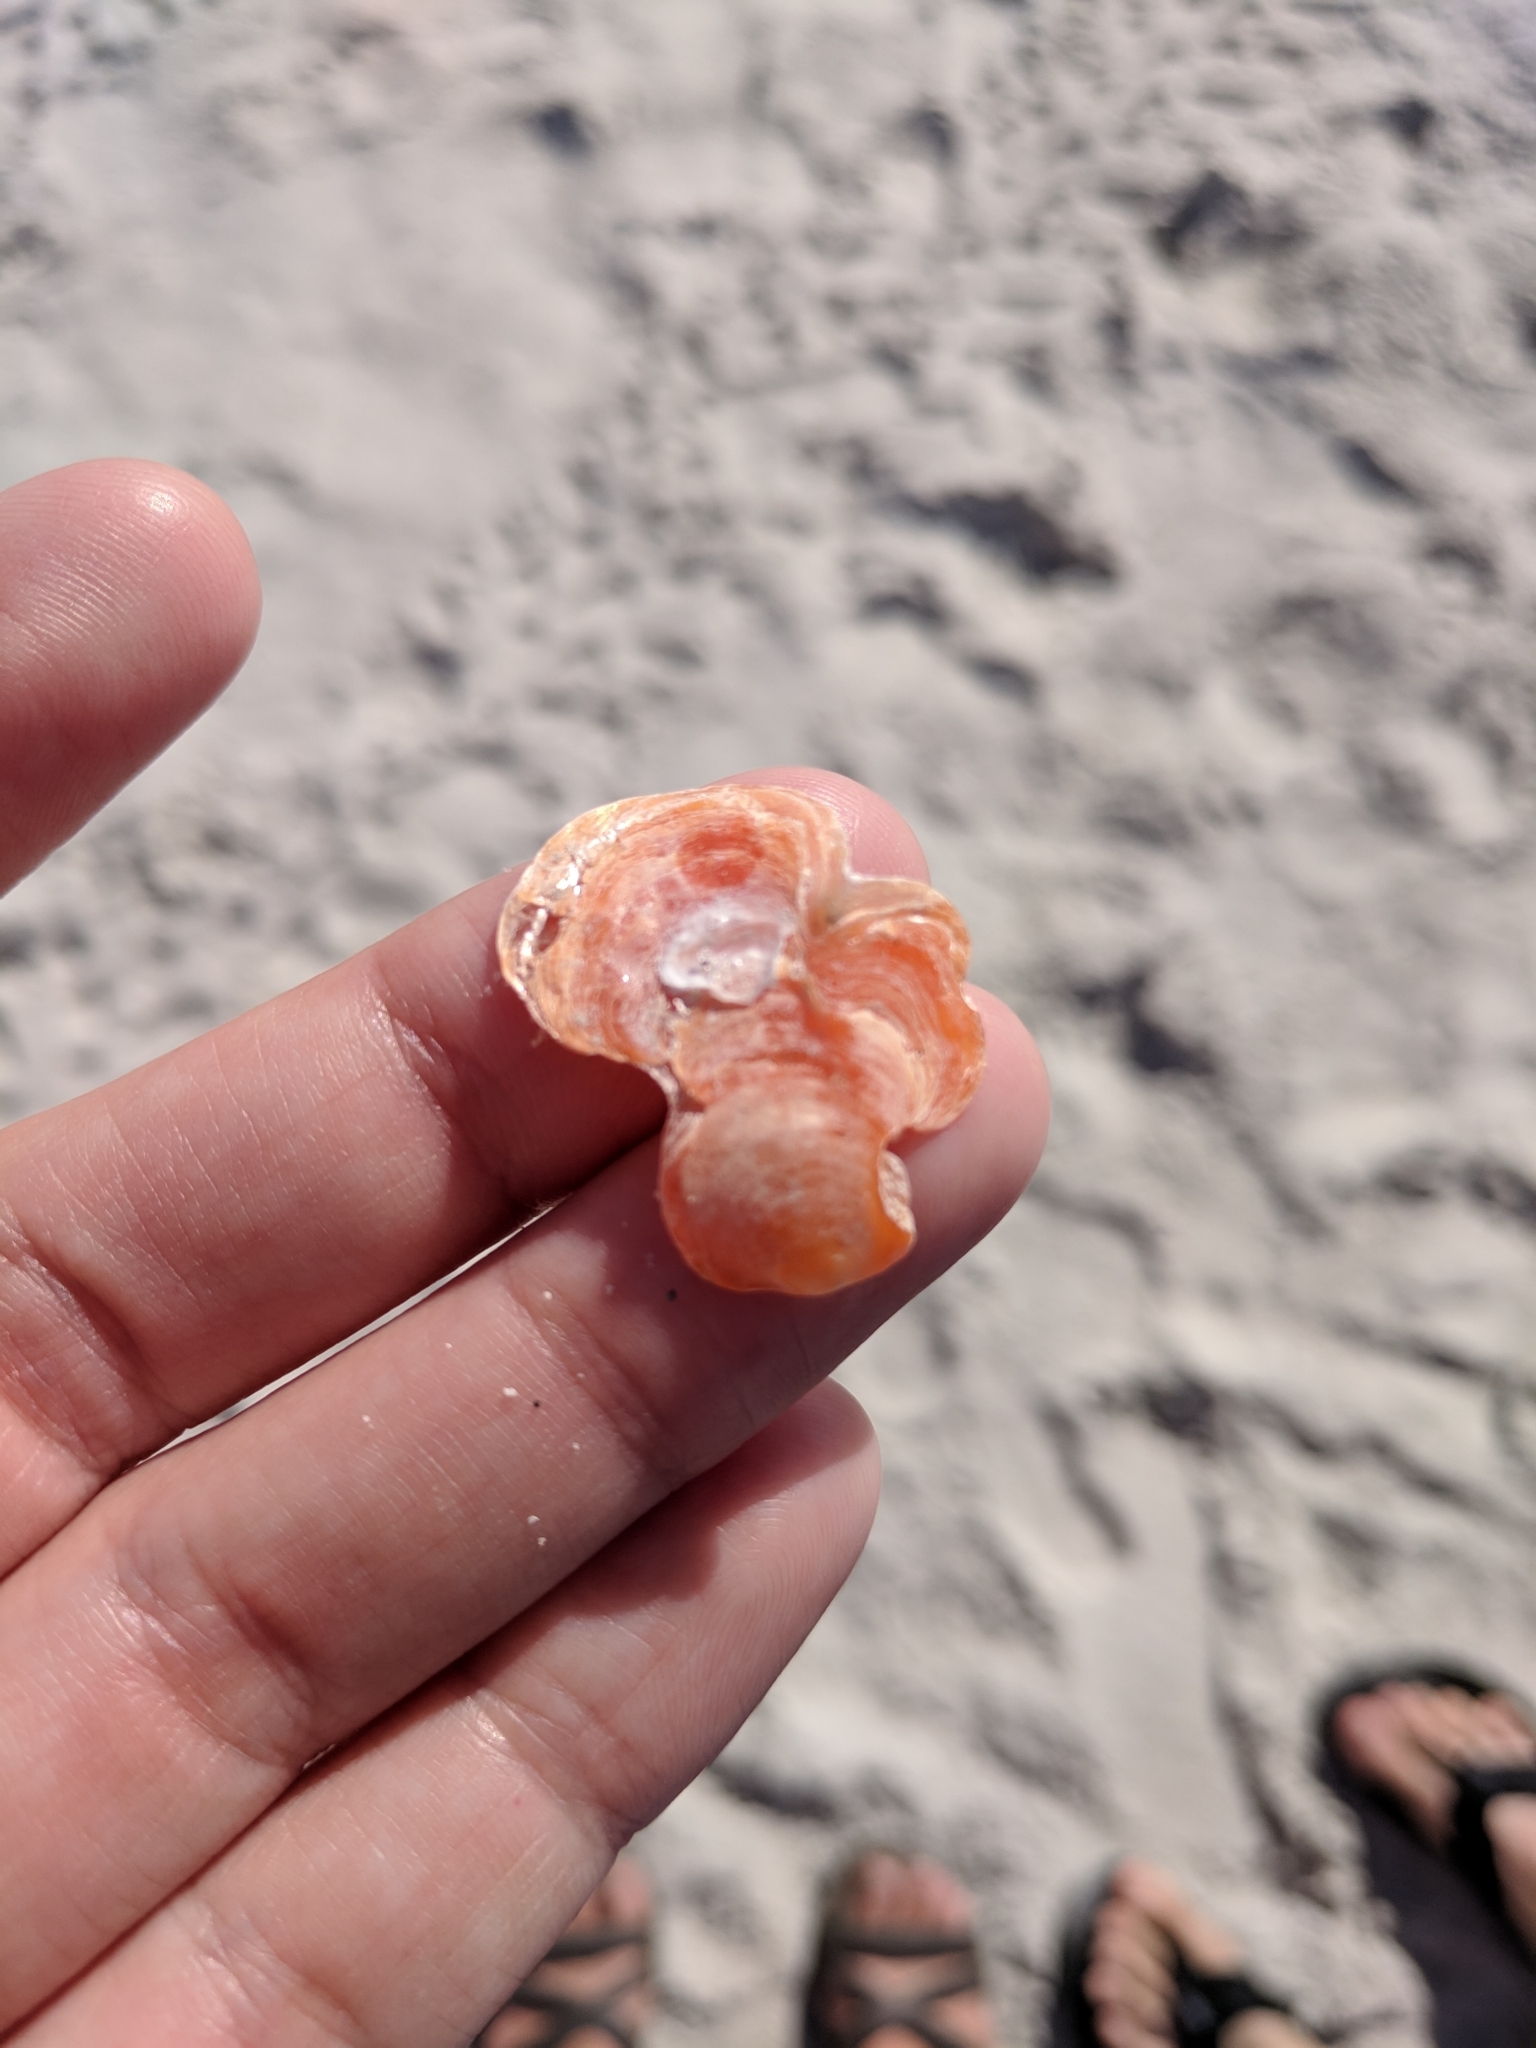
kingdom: Animalia
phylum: Mollusca
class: Bivalvia
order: Pectinida
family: Anomiidae
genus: Anomia
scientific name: Anomia simplex
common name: Common jingle shell
